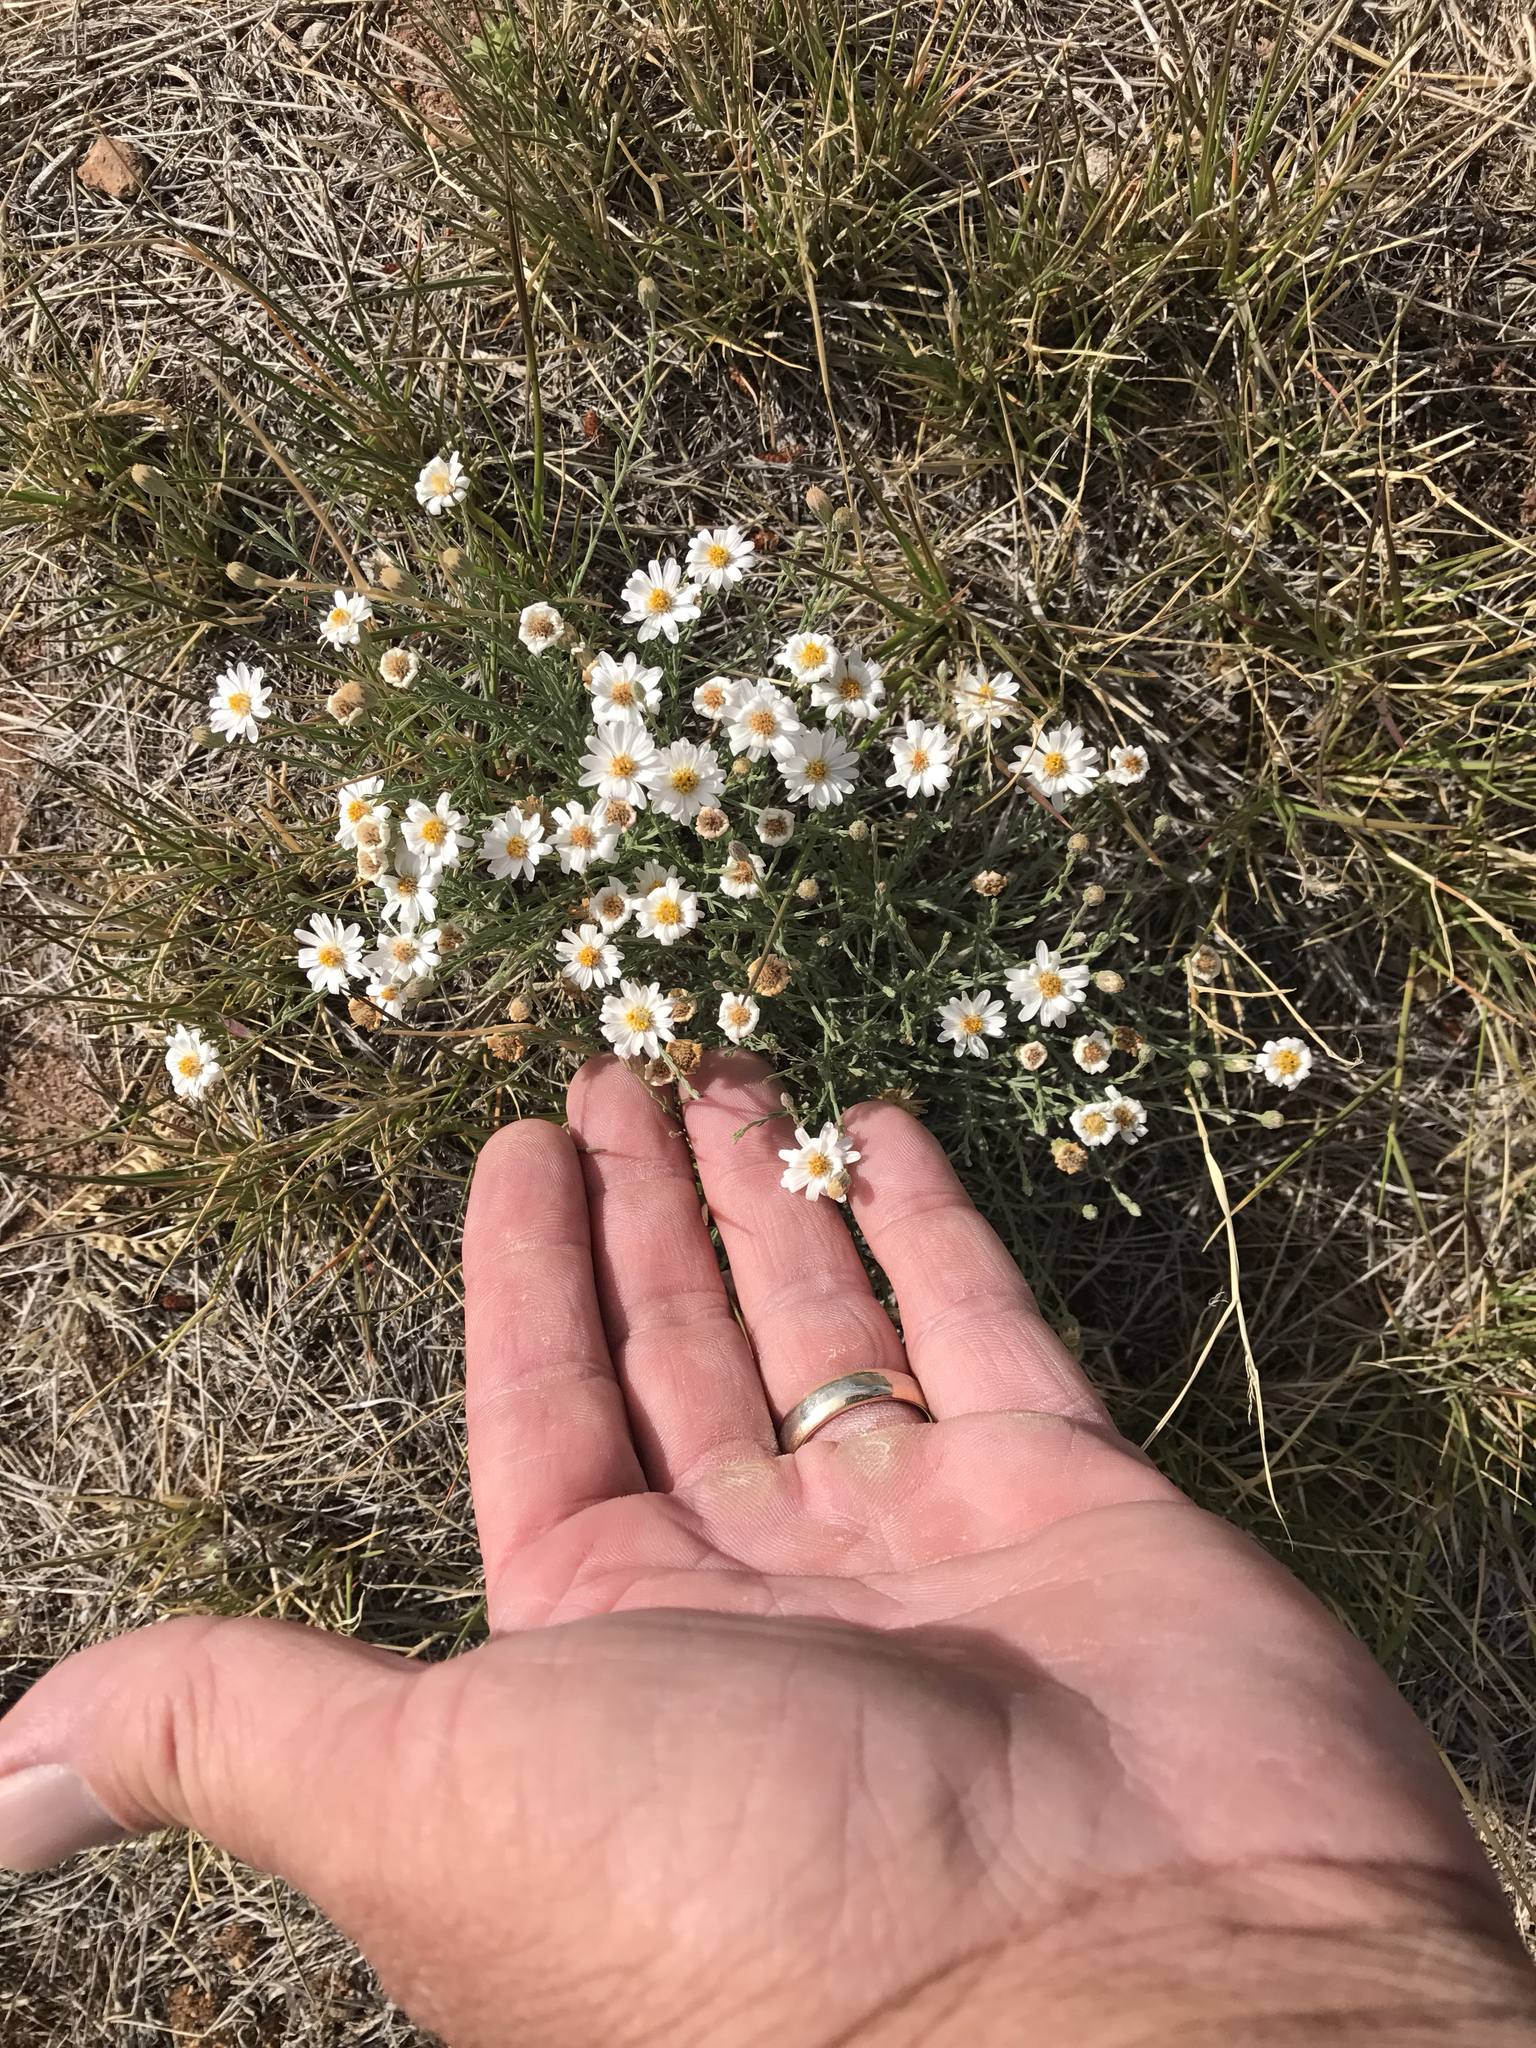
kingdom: Plantae
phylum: Tracheophyta
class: Magnoliopsida
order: Asterales
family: Asteraceae
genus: Chaetopappa
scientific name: Chaetopappa ericoides
